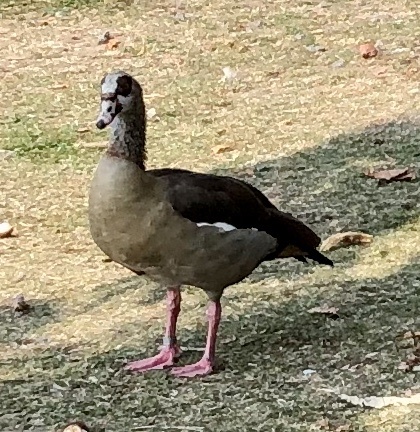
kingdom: Animalia
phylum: Chordata
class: Aves
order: Anseriformes
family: Anatidae
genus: Alopochen
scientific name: Alopochen aegyptiaca
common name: Egyptian goose
